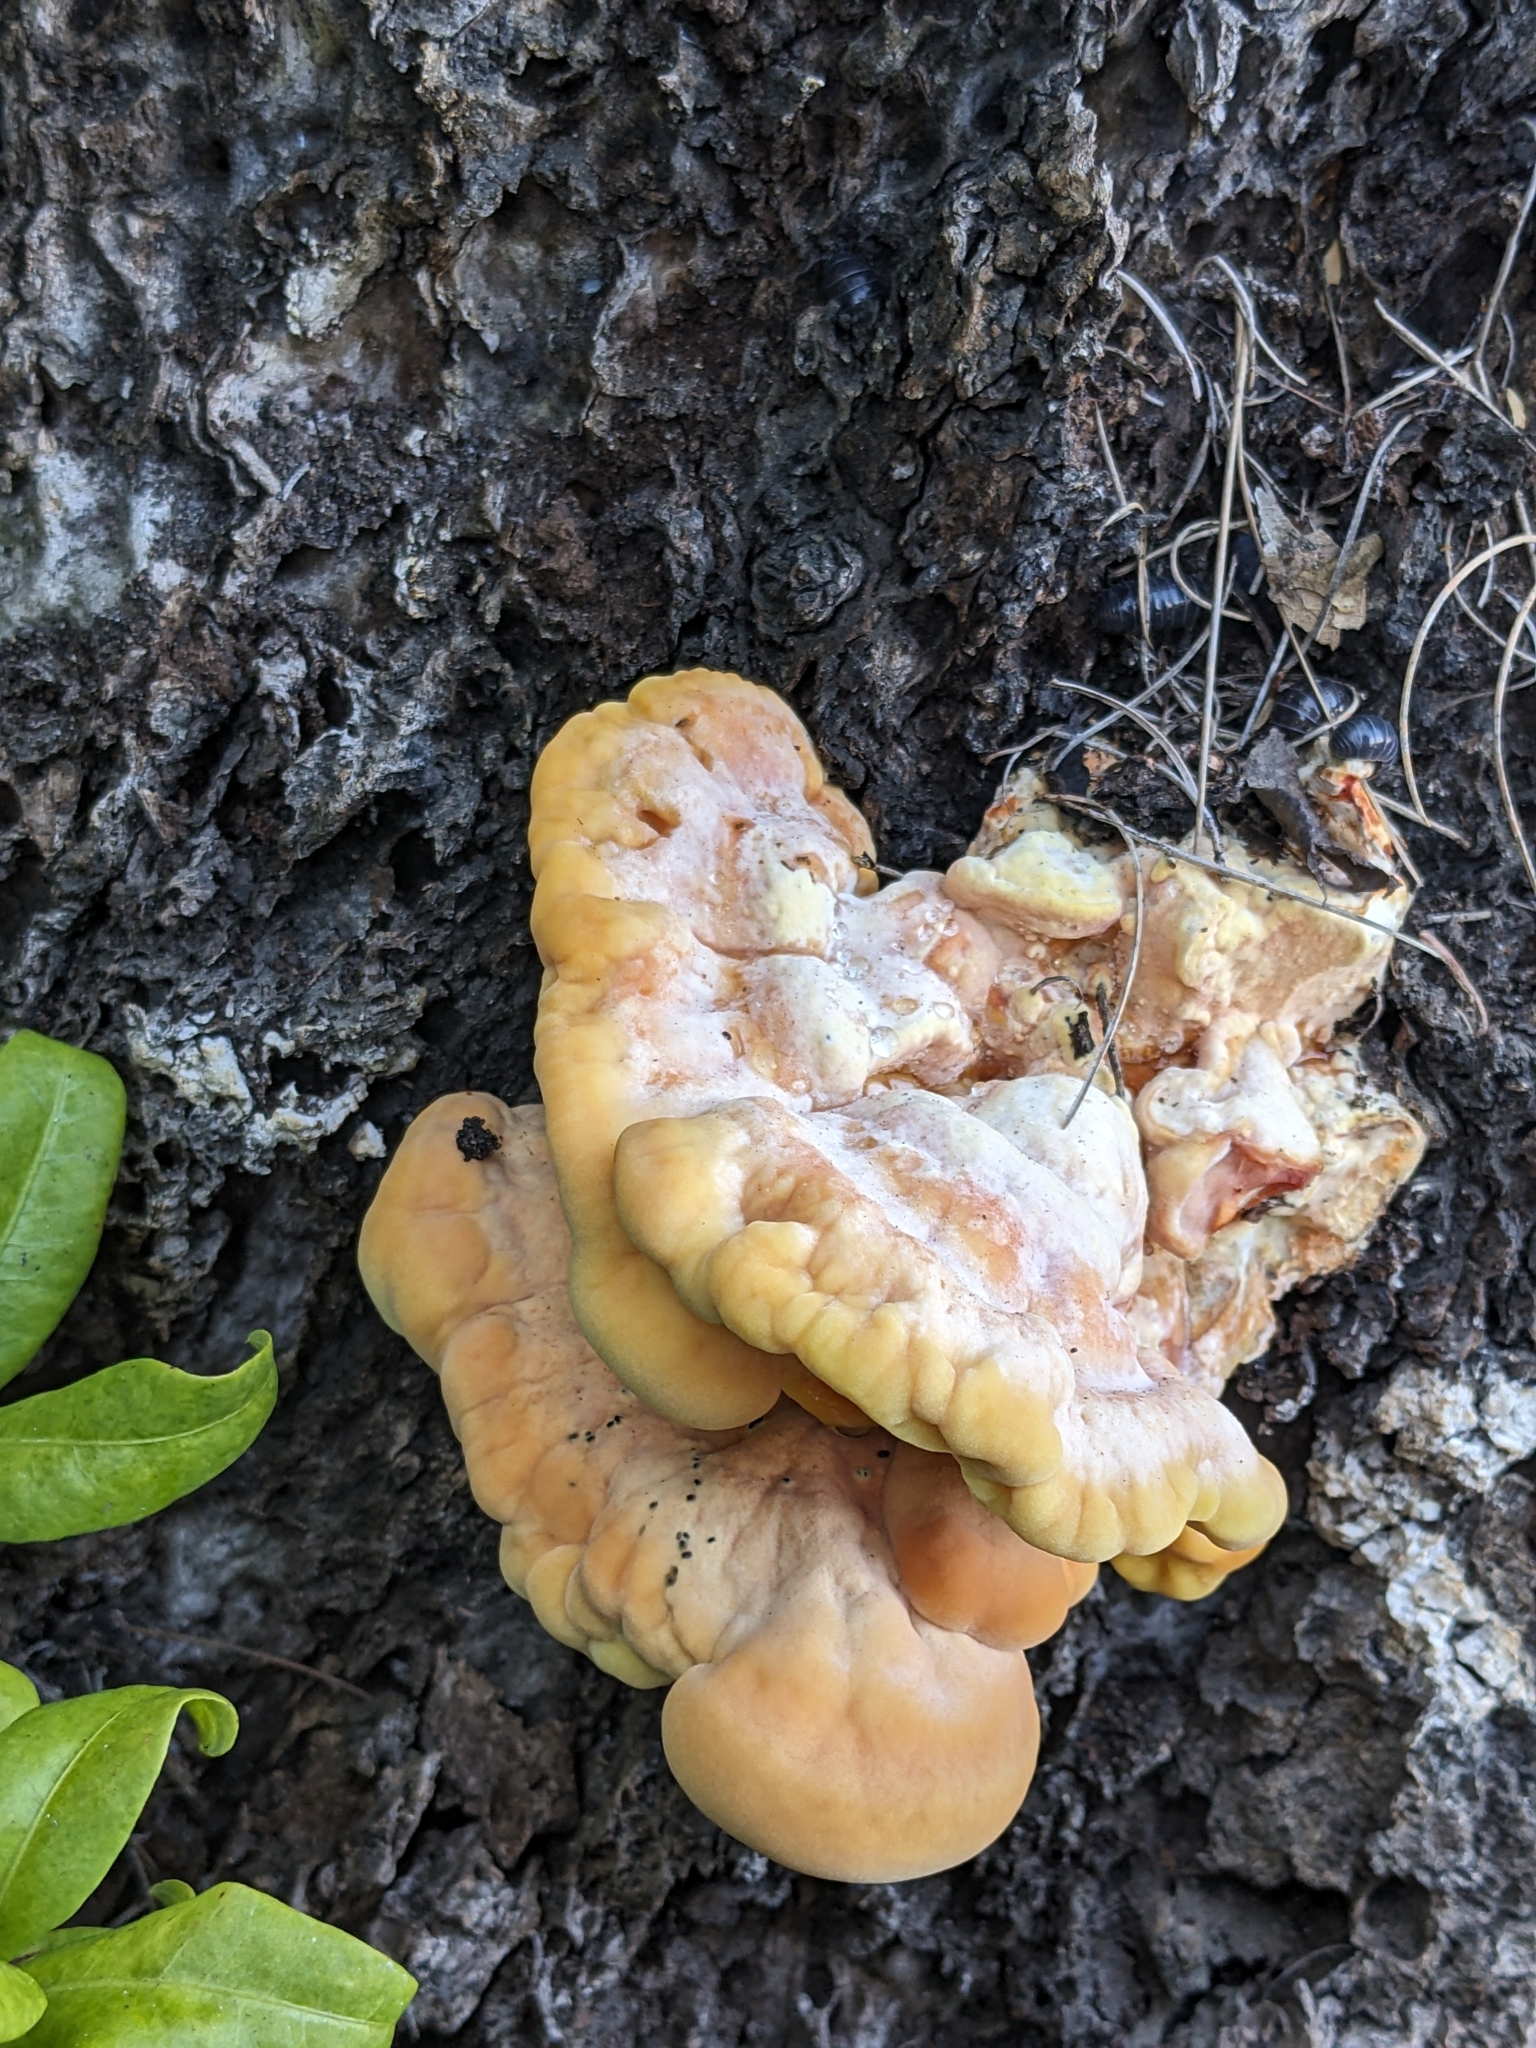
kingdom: Fungi
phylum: Basidiomycota
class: Agaricomycetes
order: Polyporales
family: Laetiporaceae
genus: Laetiporus
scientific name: Laetiporus conifericola
